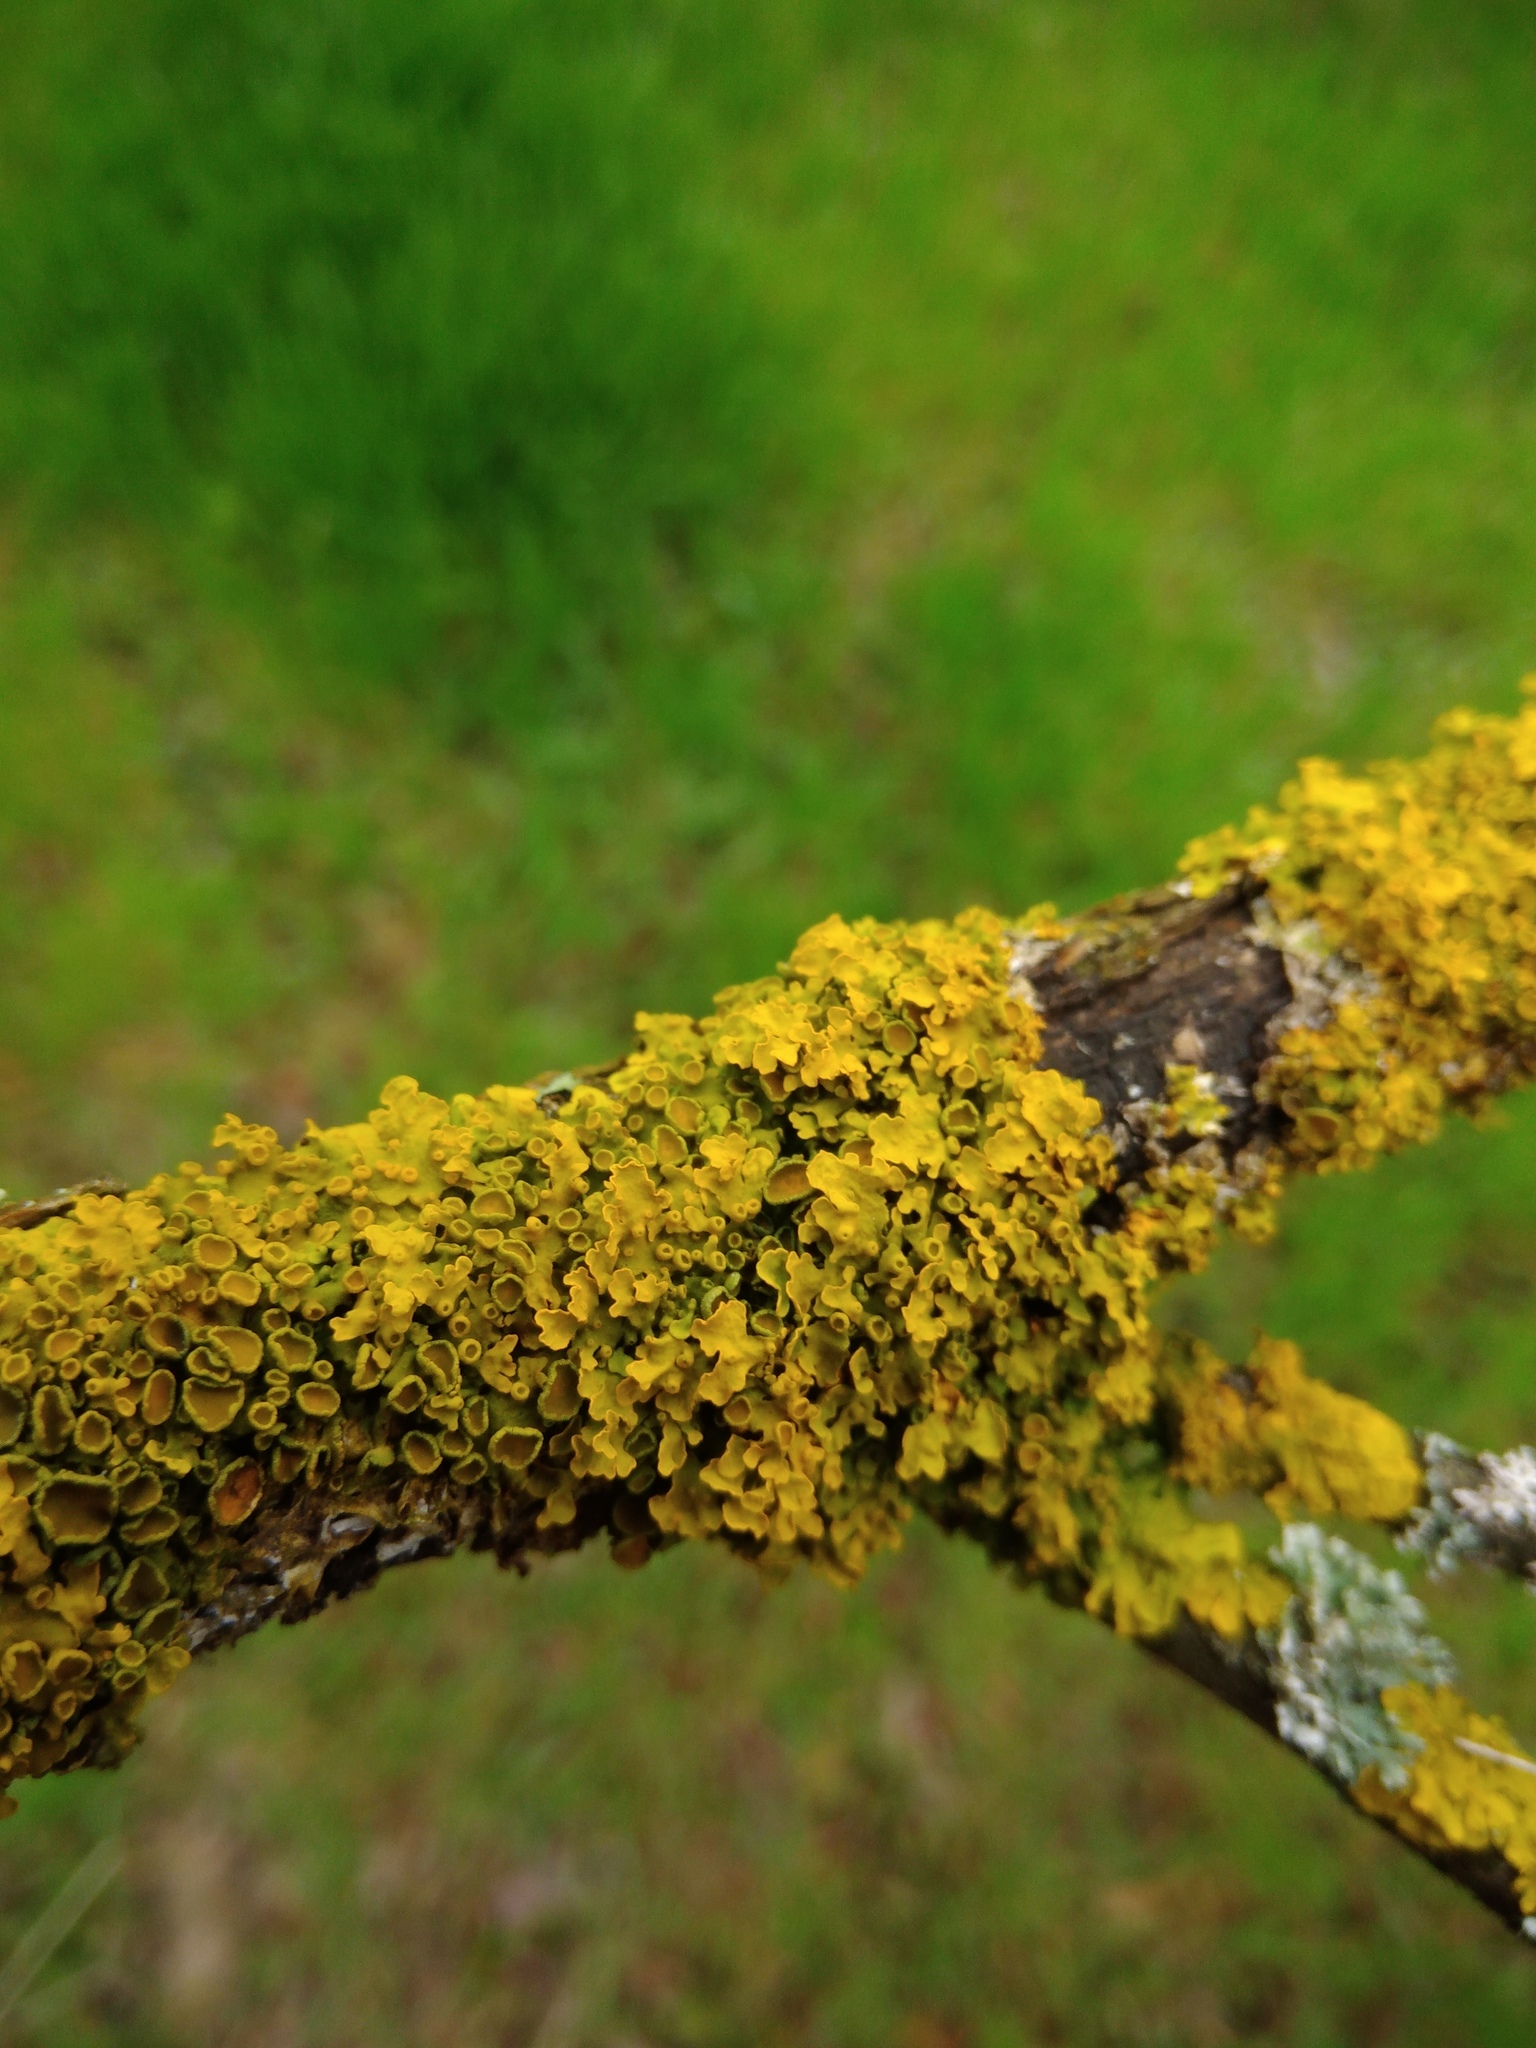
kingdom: Fungi
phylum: Ascomycota
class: Lecanoromycetes
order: Teloschistales
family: Teloschistaceae
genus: Xanthoria
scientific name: Xanthoria parietina
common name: Common orange lichen
